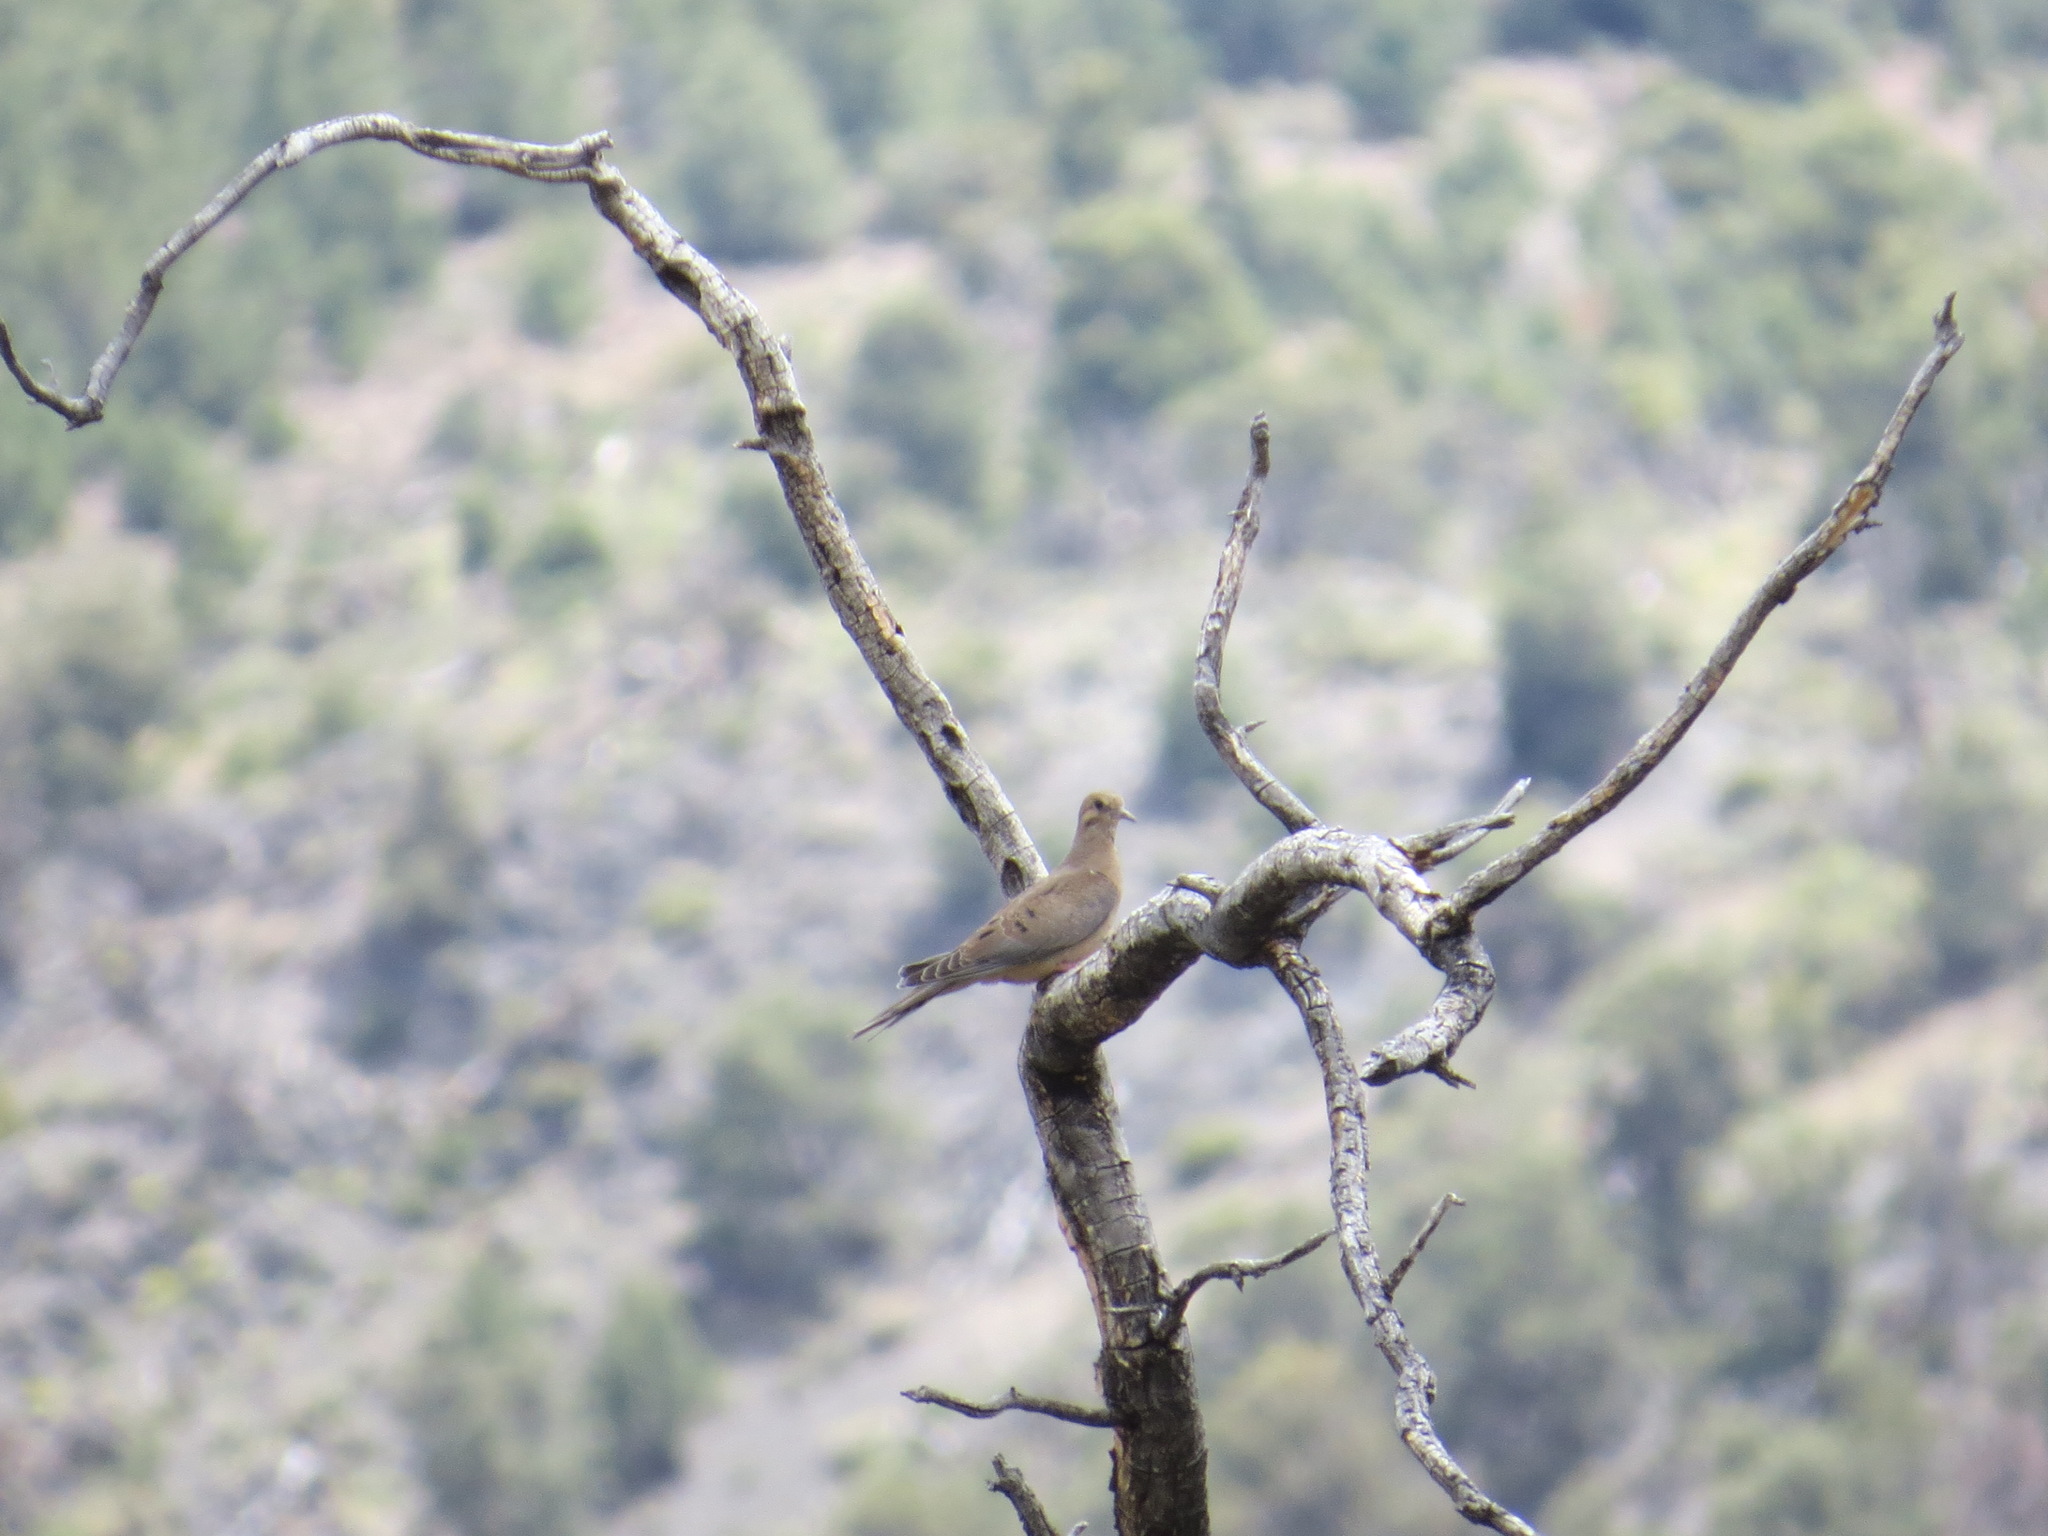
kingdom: Animalia
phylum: Chordata
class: Aves
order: Columbiformes
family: Columbidae
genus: Zenaida
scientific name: Zenaida macroura
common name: Mourning dove
